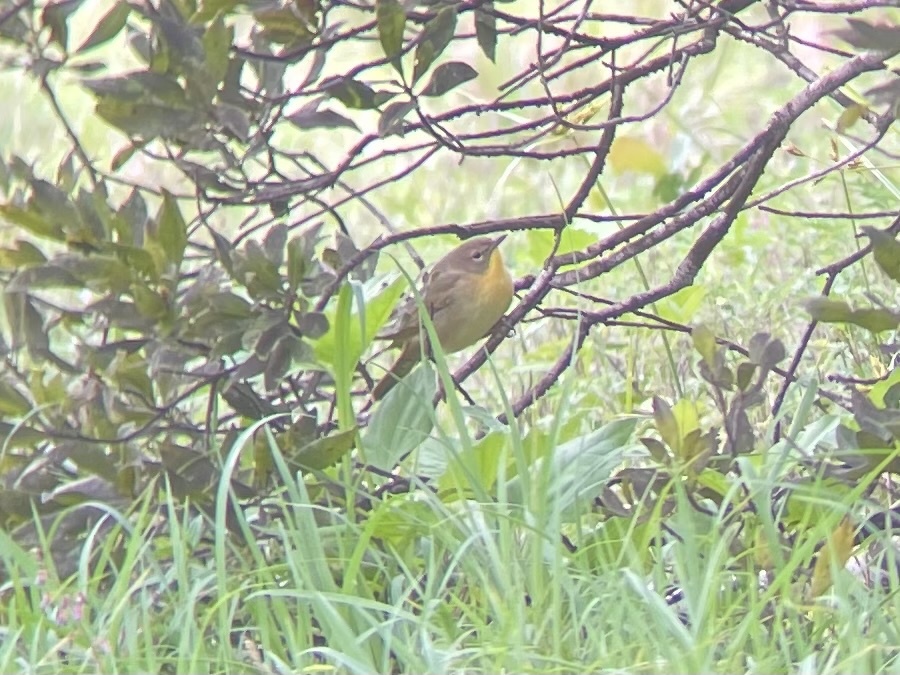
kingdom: Animalia
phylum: Chordata
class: Aves
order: Passeriformes
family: Parulidae
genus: Geothlypis
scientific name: Geothlypis trichas
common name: Common yellowthroat
